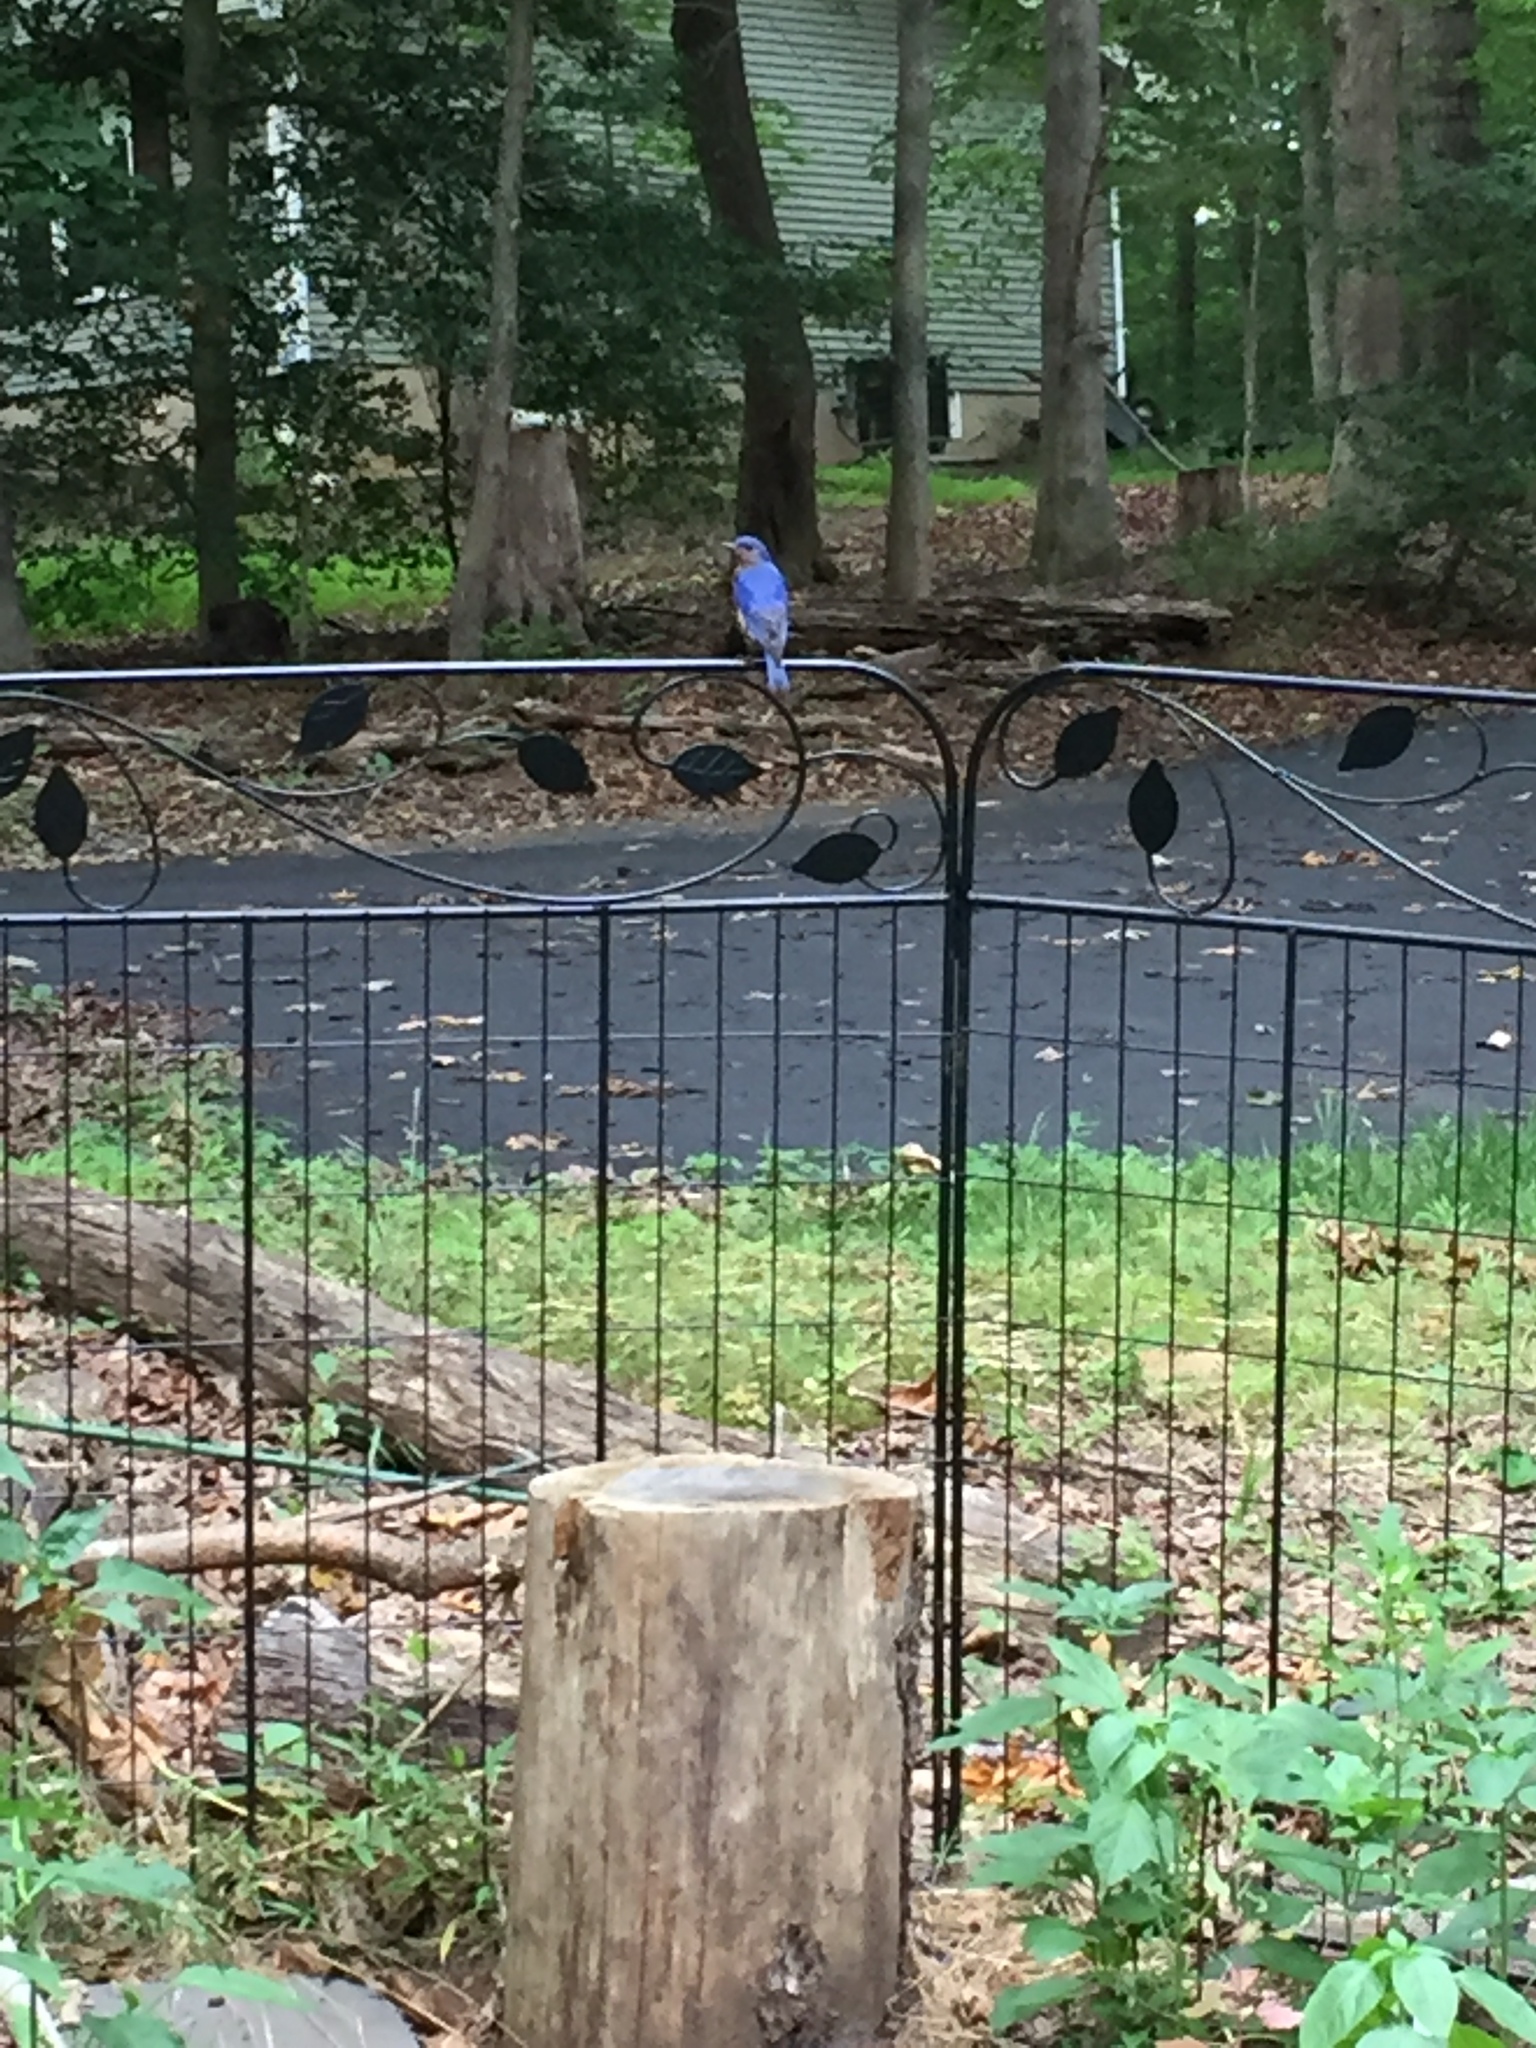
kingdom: Animalia
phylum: Chordata
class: Aves
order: Passeriformes
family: Turdidae
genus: Sialia
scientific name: Sialia sialis
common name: Eastern bluebird
